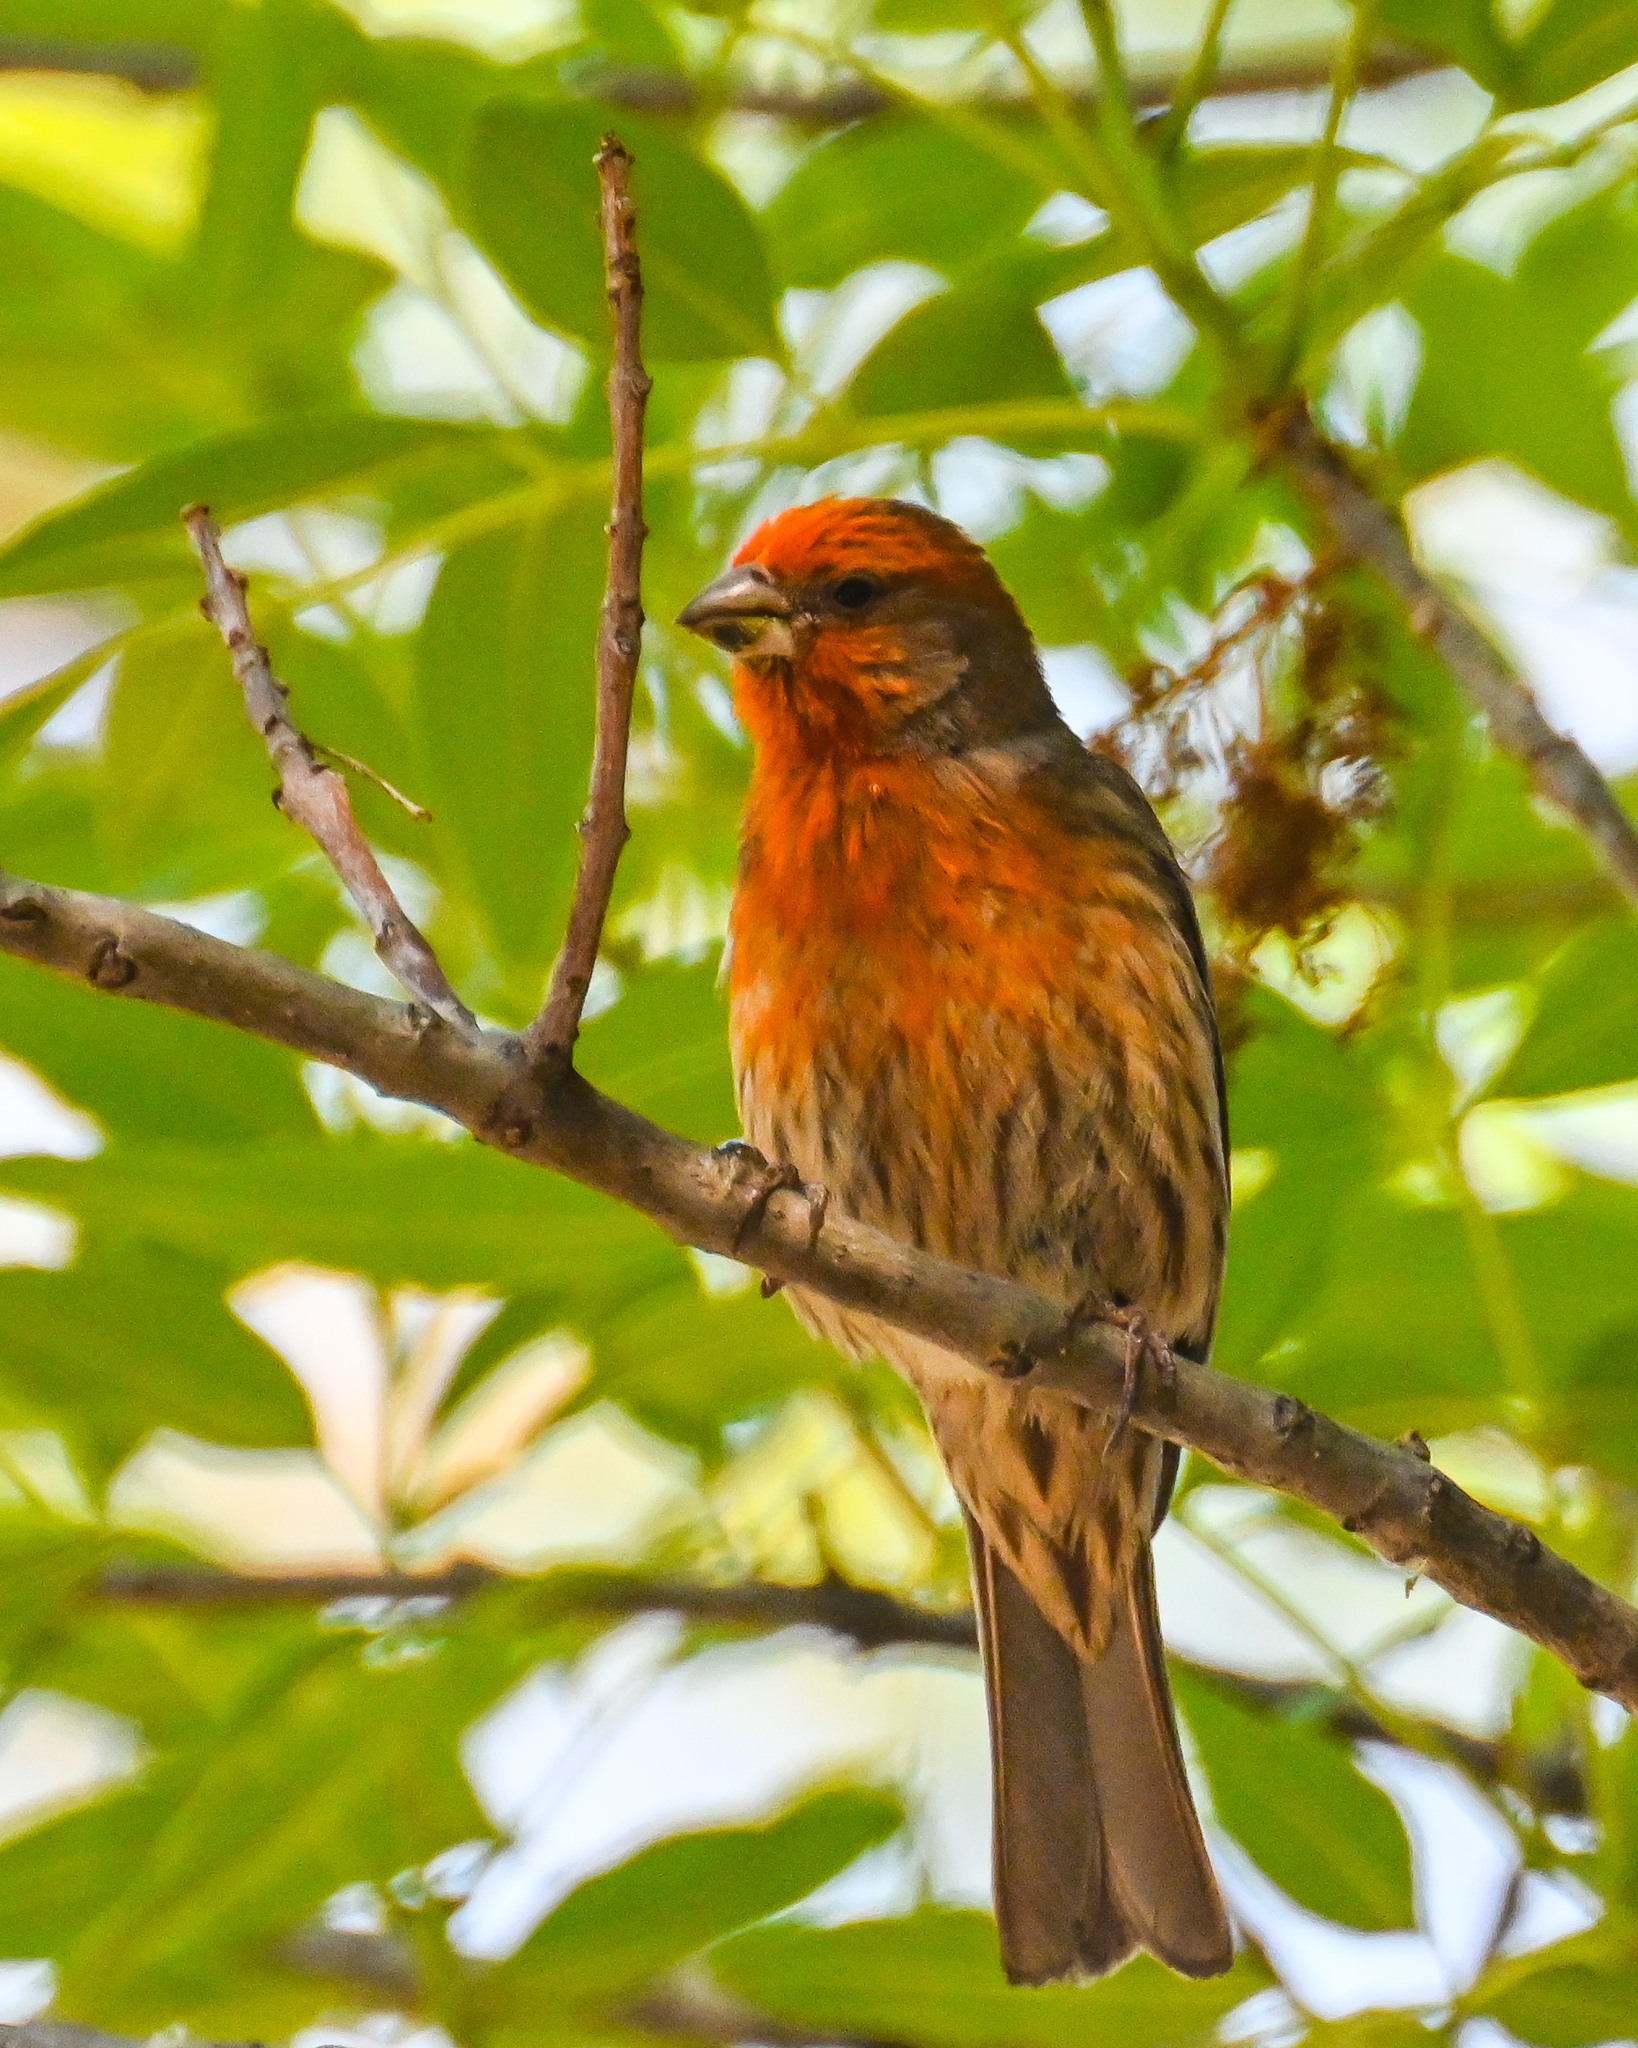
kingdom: Animalia
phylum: Chordata
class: Aves
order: Passeriformes
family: Fringillidae
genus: Haemorhous
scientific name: Haemorhous mexicanus
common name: House finch
